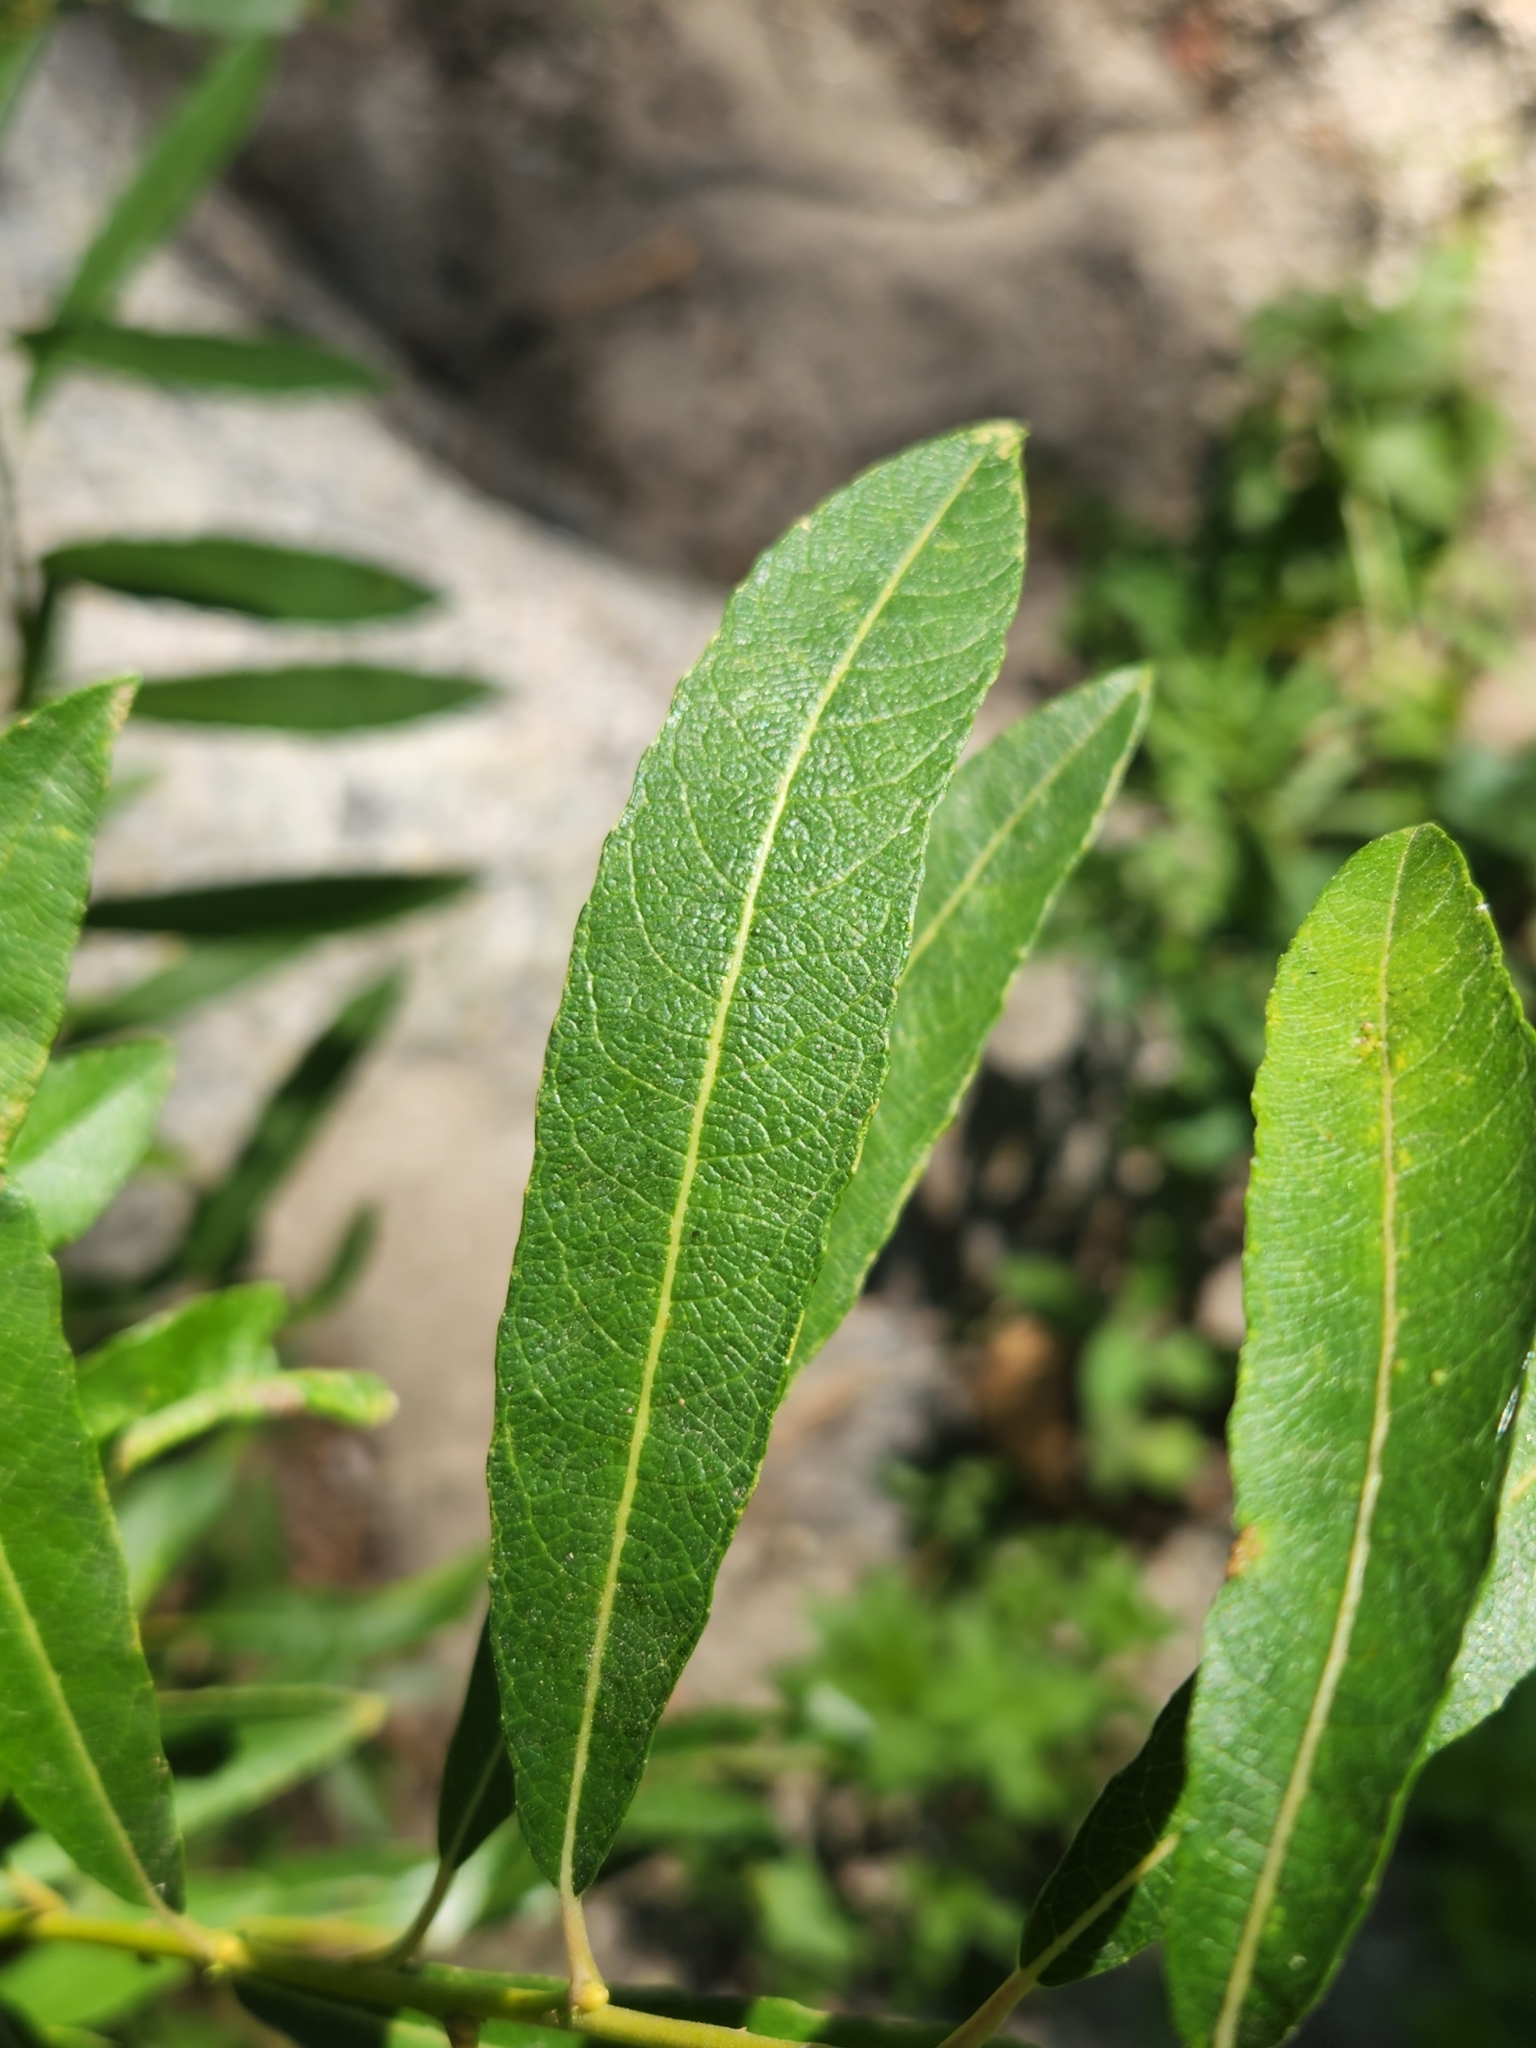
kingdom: Plantae
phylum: Tracheophyta
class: Magnoliopsida
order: Malpighiales
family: Salicaceae
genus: Salix
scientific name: Salix lasiolepis
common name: Arroyo willow
